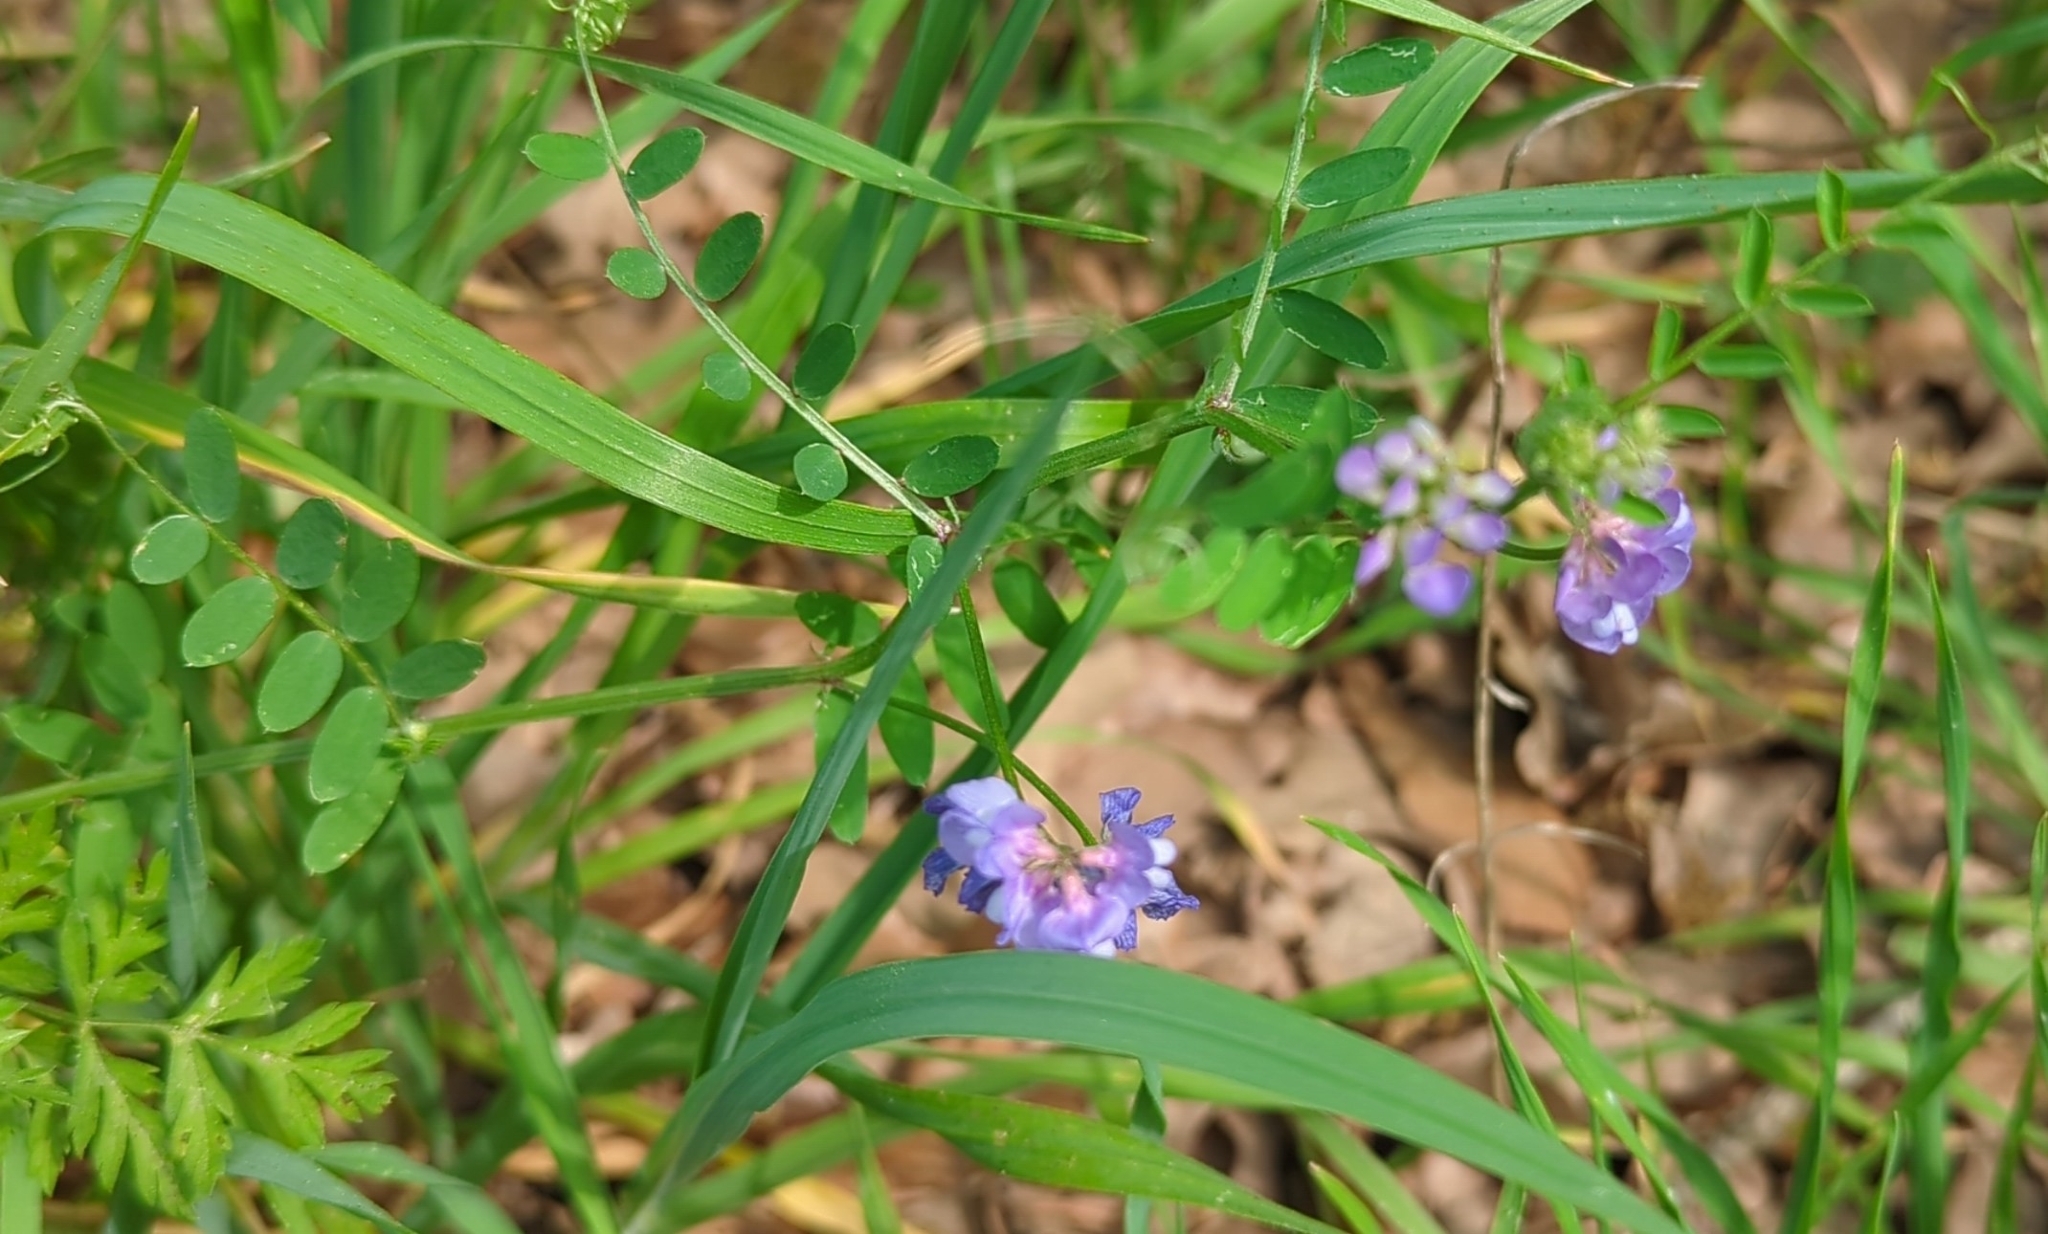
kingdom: Plantae
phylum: Tracheophyta
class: Magnoliopsida
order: Fabales
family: Fabaceae
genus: Vicia
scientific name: Vicia ludoviciana
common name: Louisiana vetch
